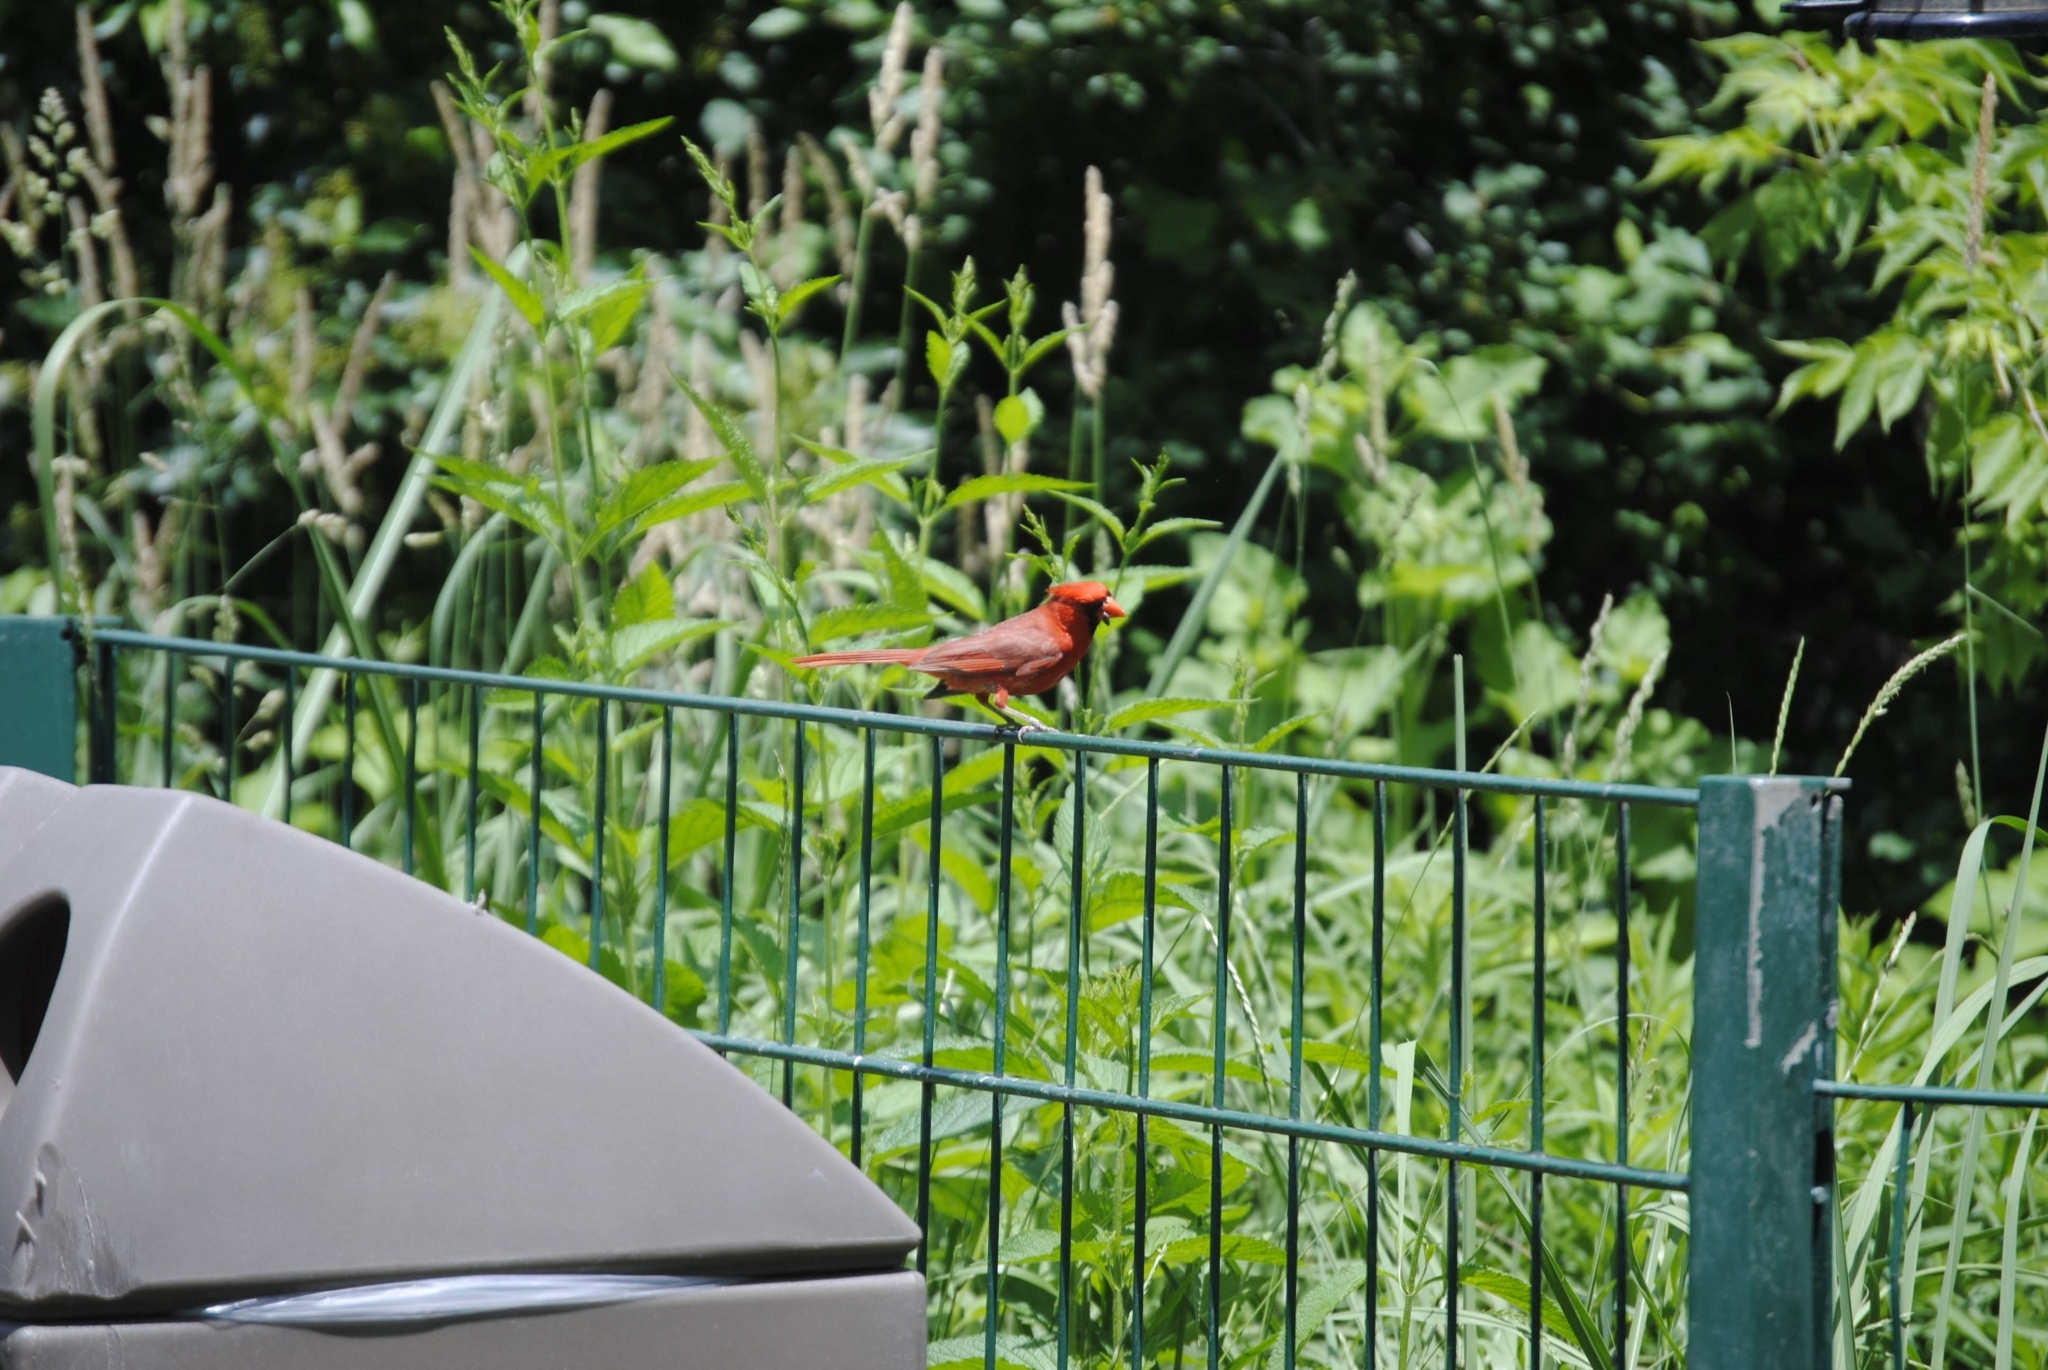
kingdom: Animalia
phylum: Chordata
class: Aves
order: Passeriformes
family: Cardinalidae
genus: Cardinalis
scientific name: Cardinalis cardinalis
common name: Northern cardinal
